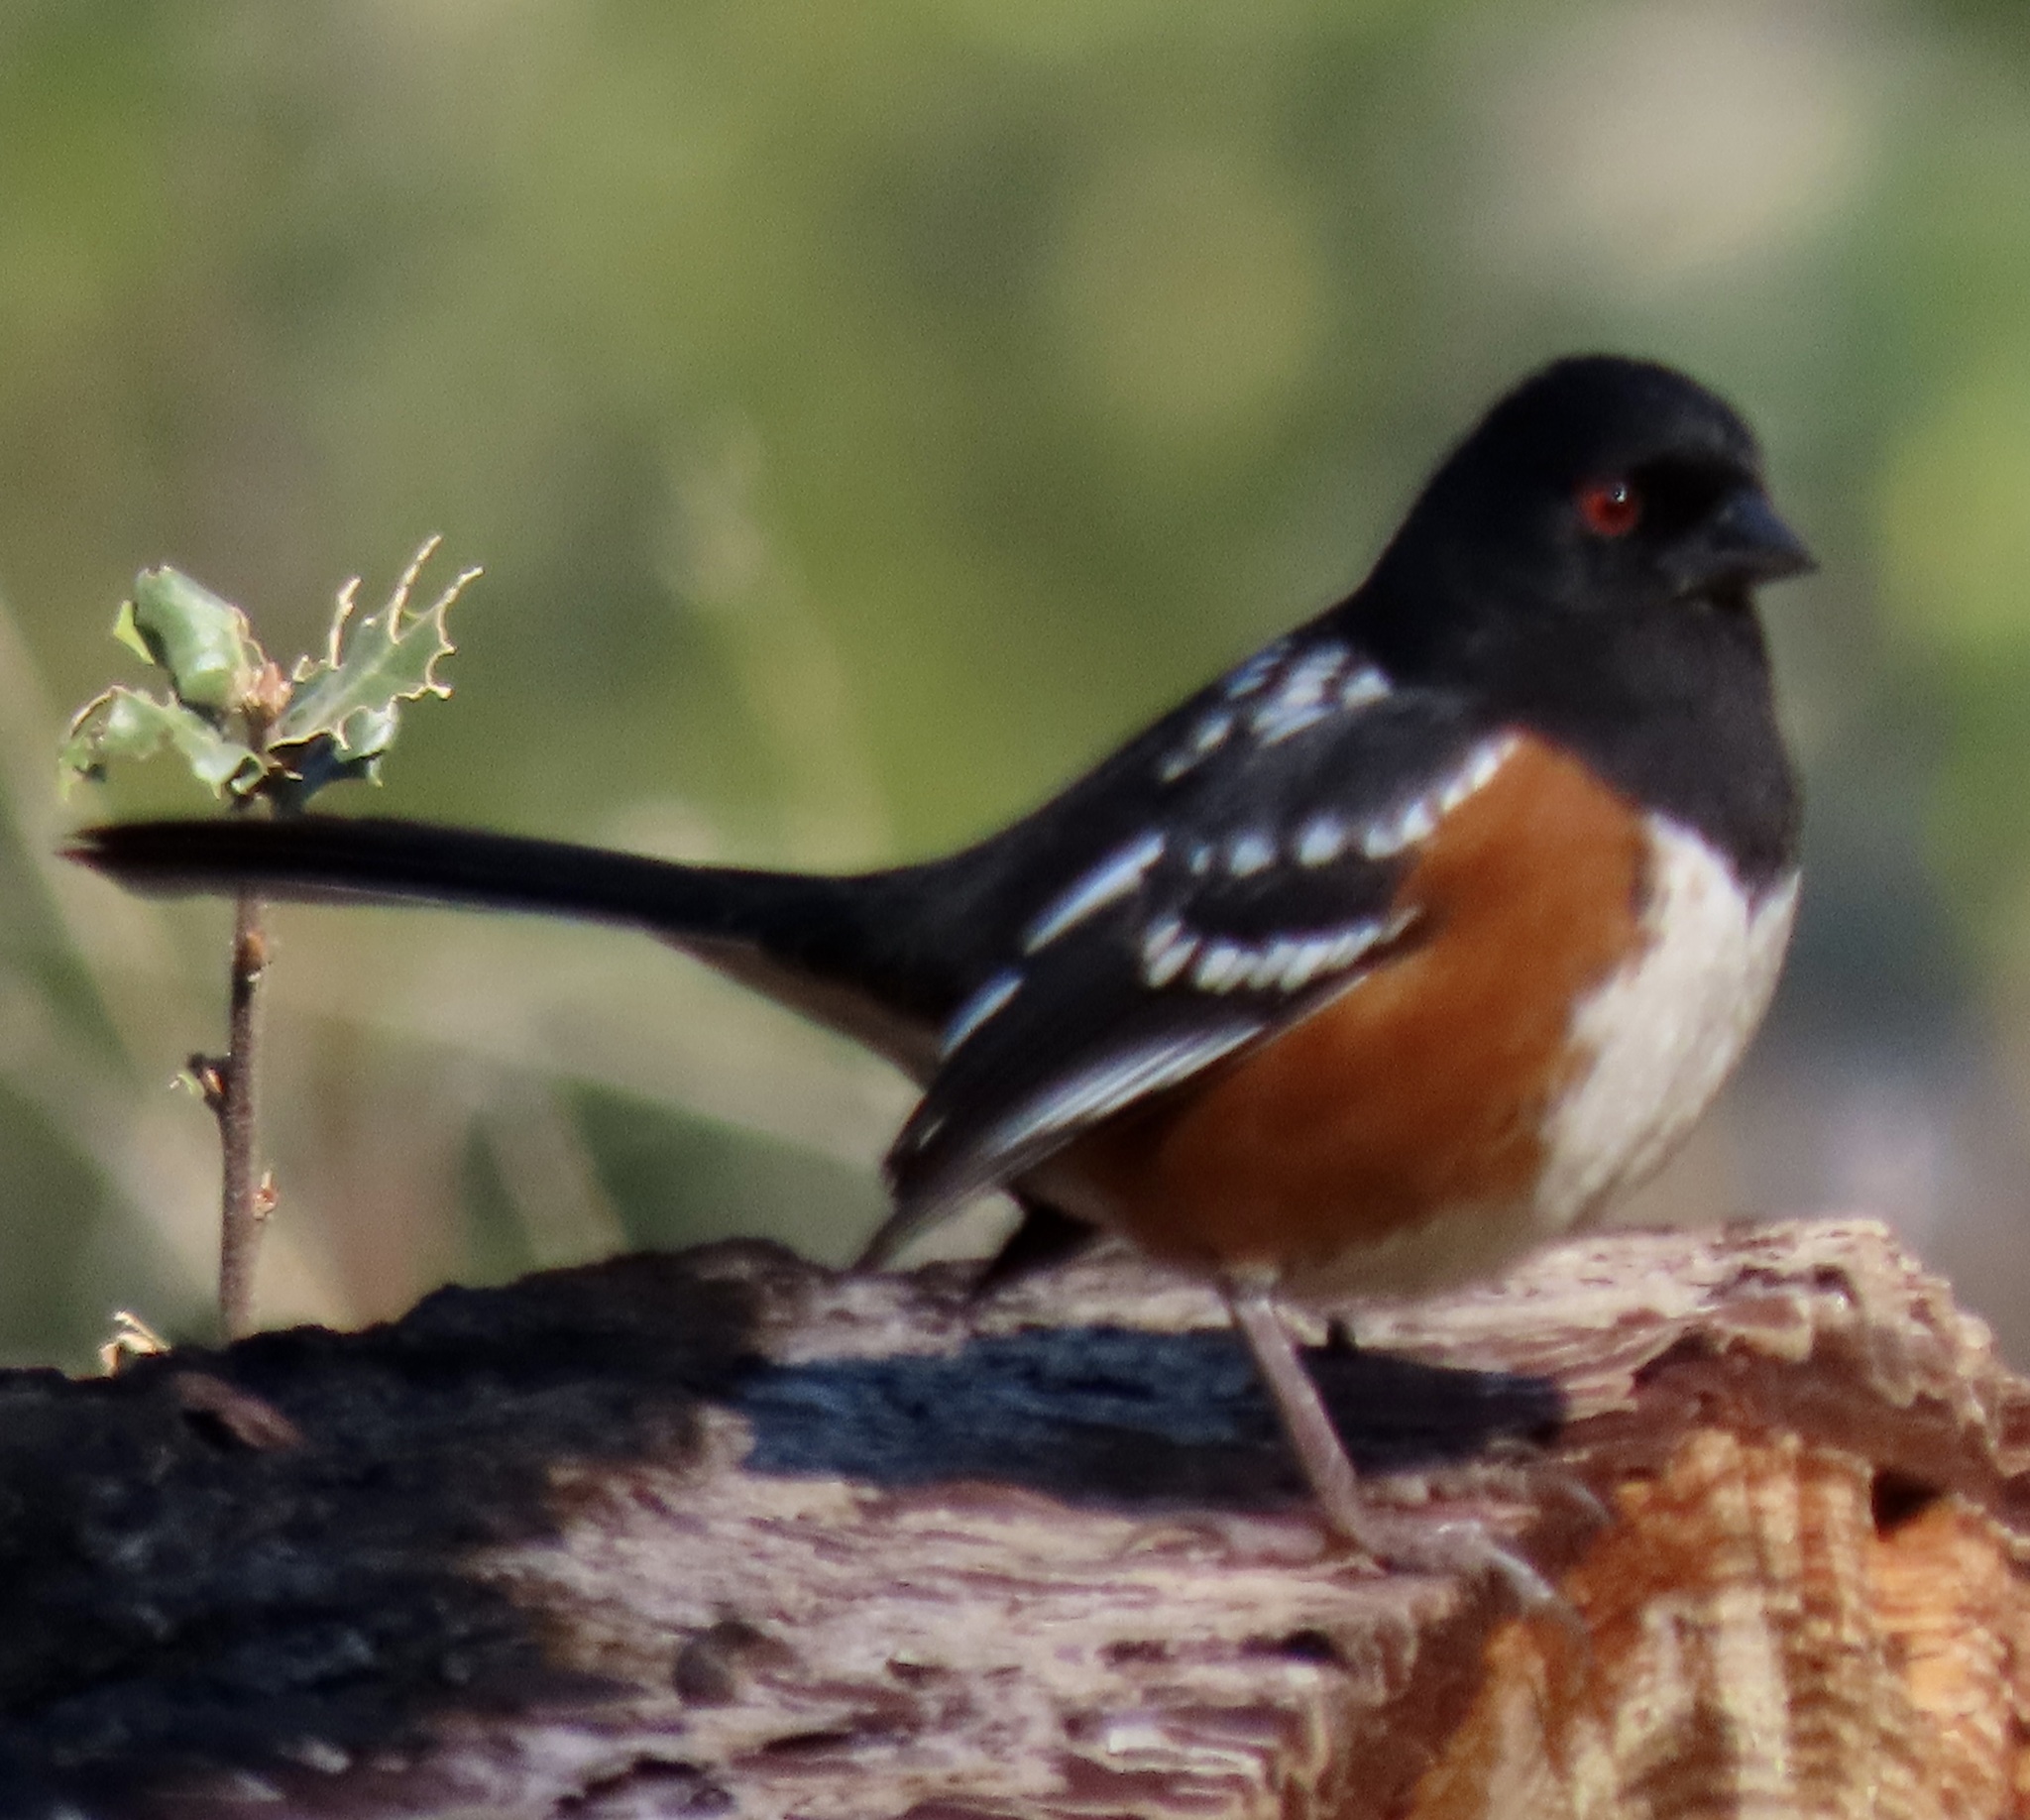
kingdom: Animalia
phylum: Chordata
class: Aves
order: Passeriformes
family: Passerellidae
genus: Pipilo
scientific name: Pipilo maculatus
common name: Spotted towhee
